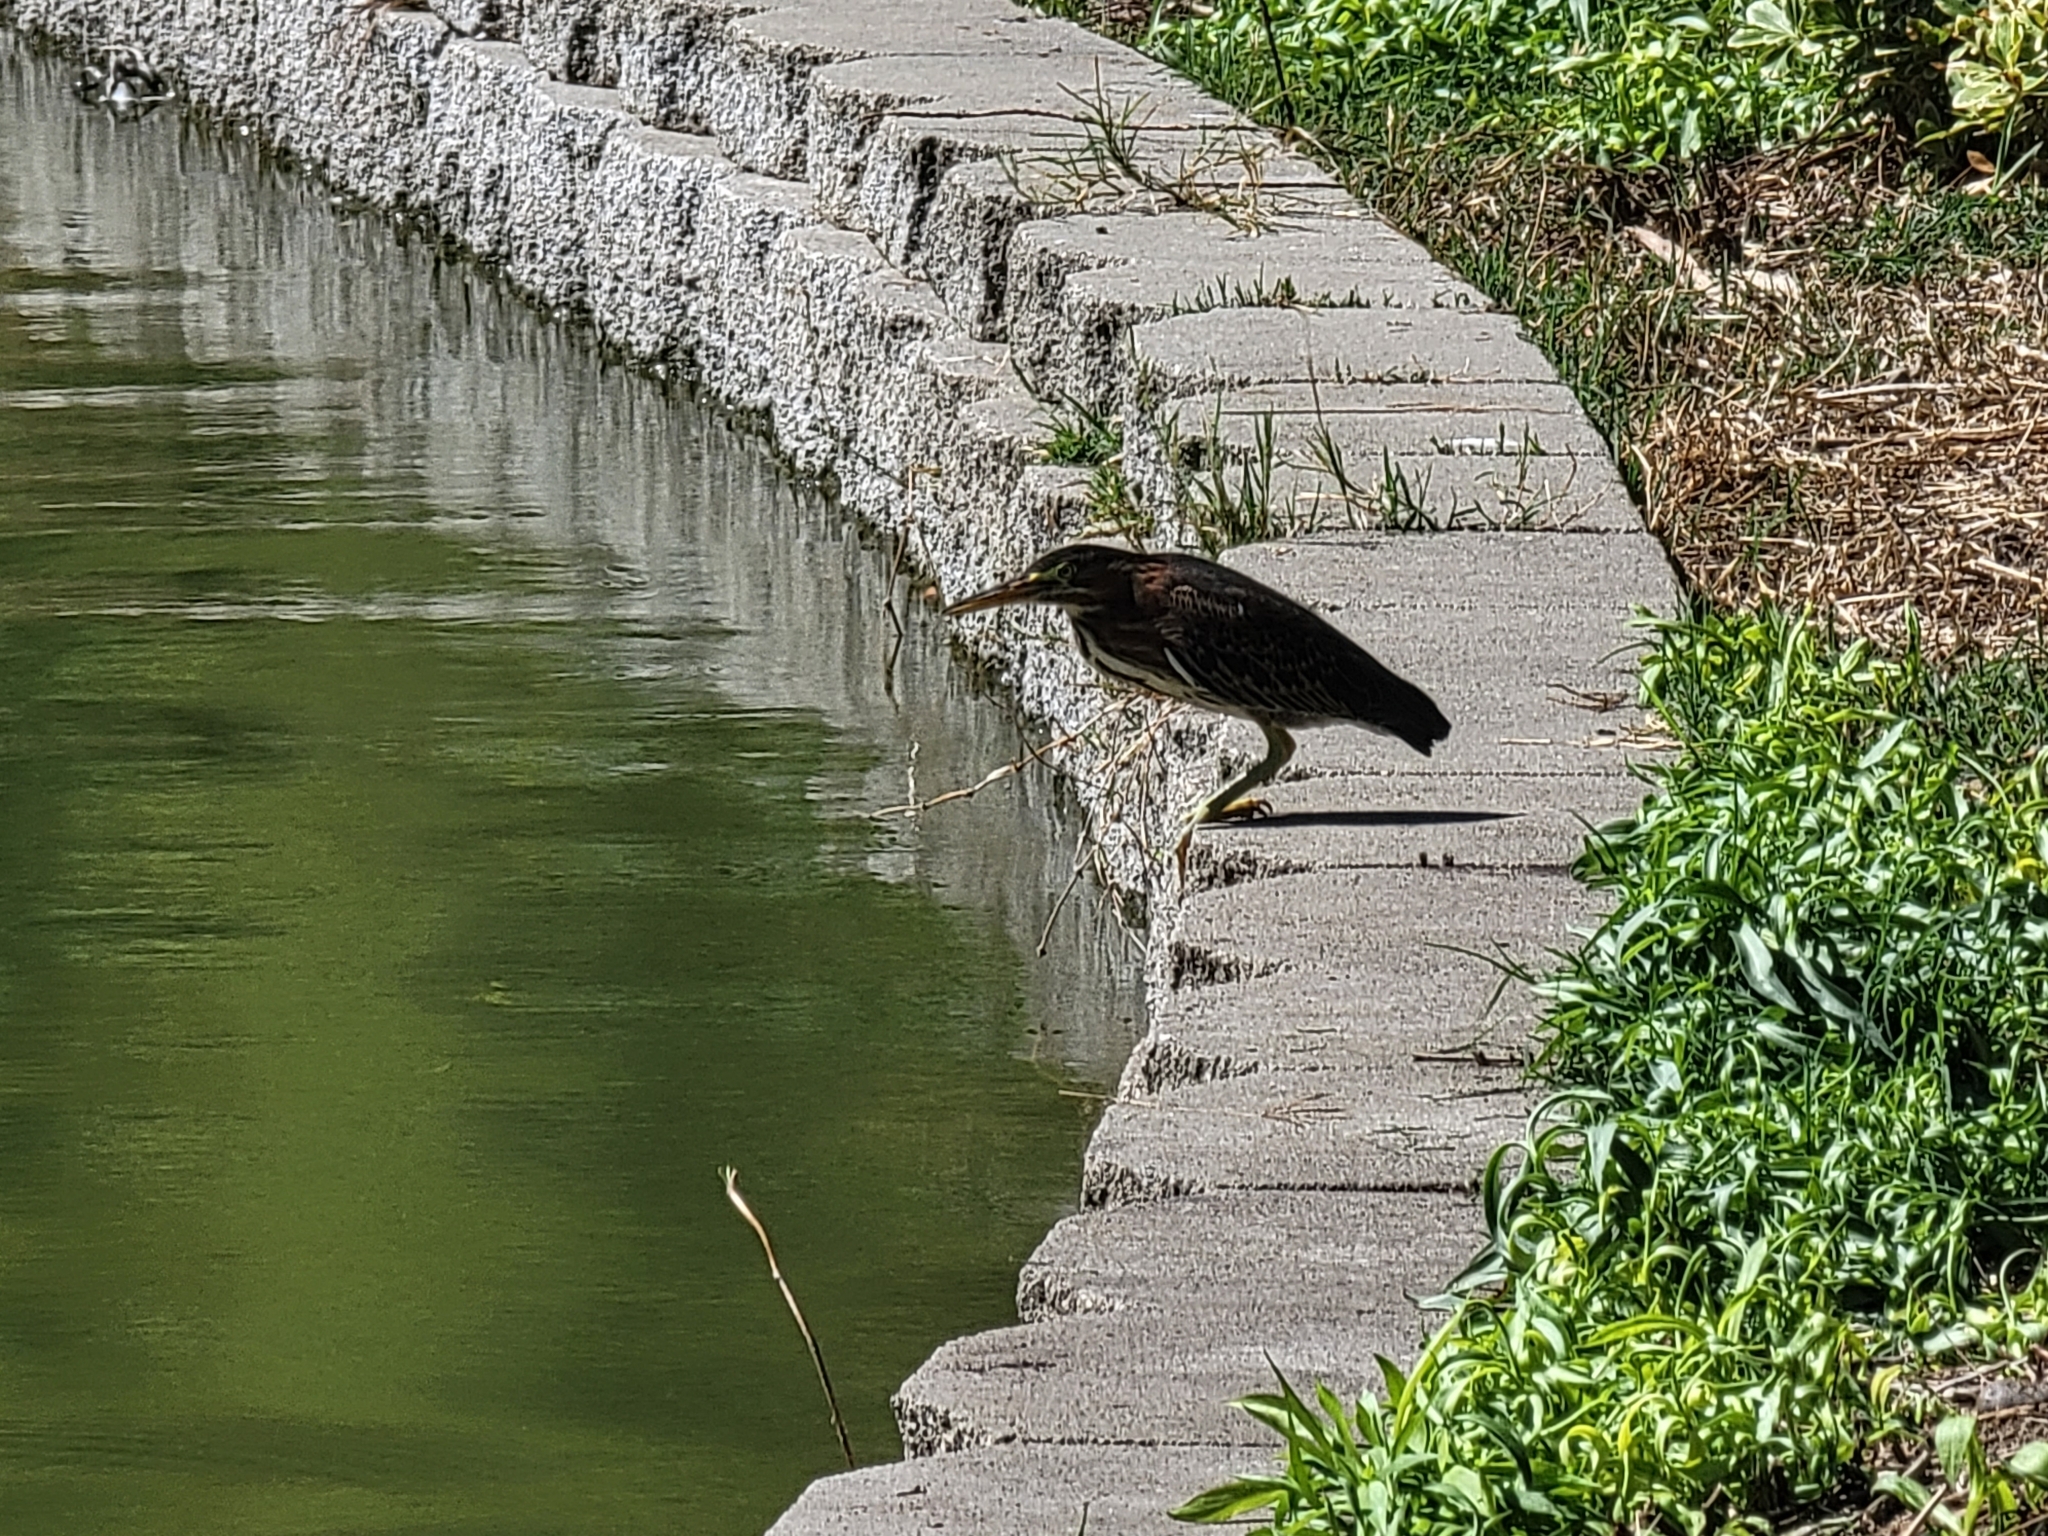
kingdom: Animalia
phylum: Chordata
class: Aves
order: Pelecaniformes
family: Ardeidae
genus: Butorides
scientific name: Butorides virescens
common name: Green heron
